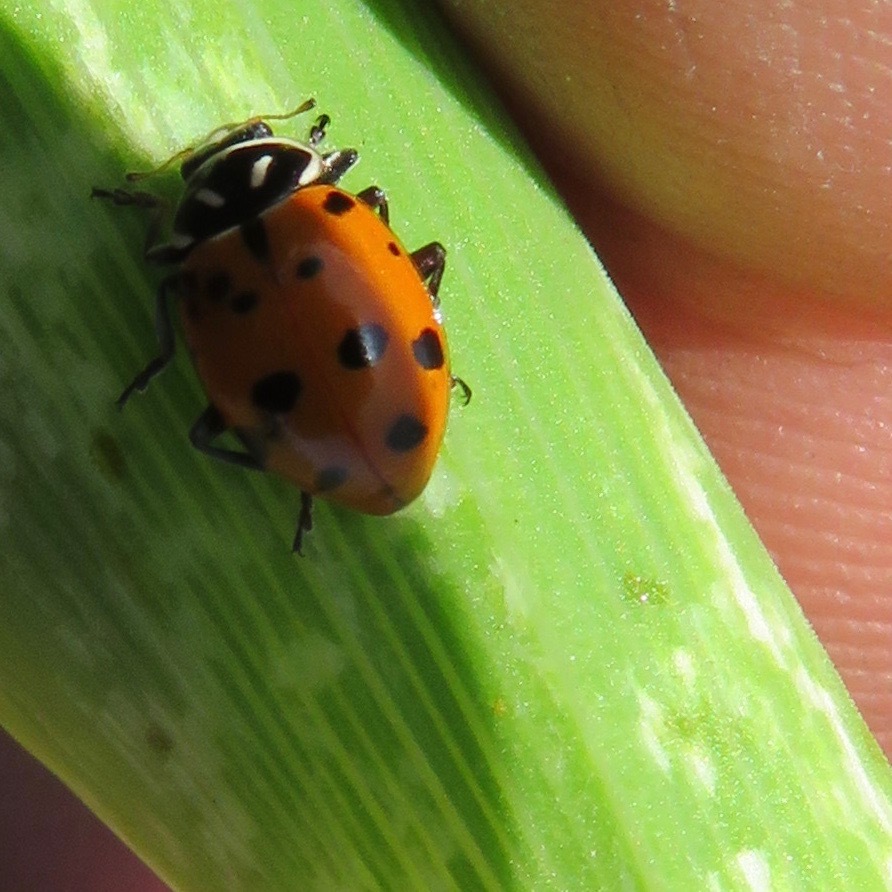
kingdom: Animalia
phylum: Arthropoda
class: Insecta
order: Coleoptera
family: Coccinellidae
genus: Hippodamia
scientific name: Hippodamia convergens
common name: Convergent lady beetle
